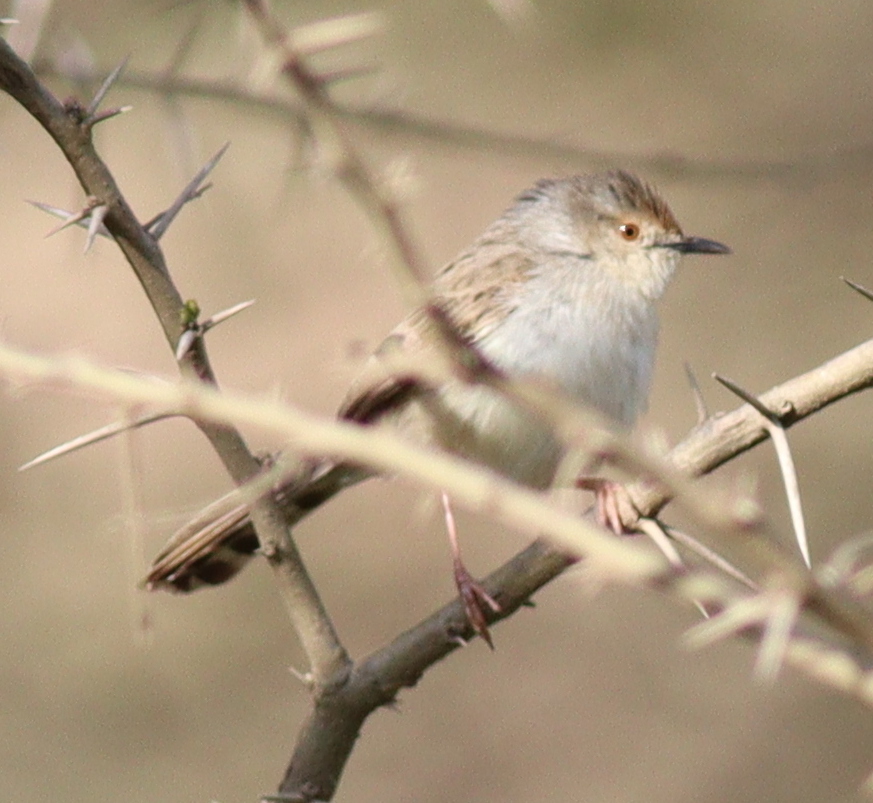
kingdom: Animalia
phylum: Chordata
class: Aves
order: Passeriformes
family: Cisticolidae
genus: Prinia
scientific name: Prinia gracilis
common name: Graceful prinia
